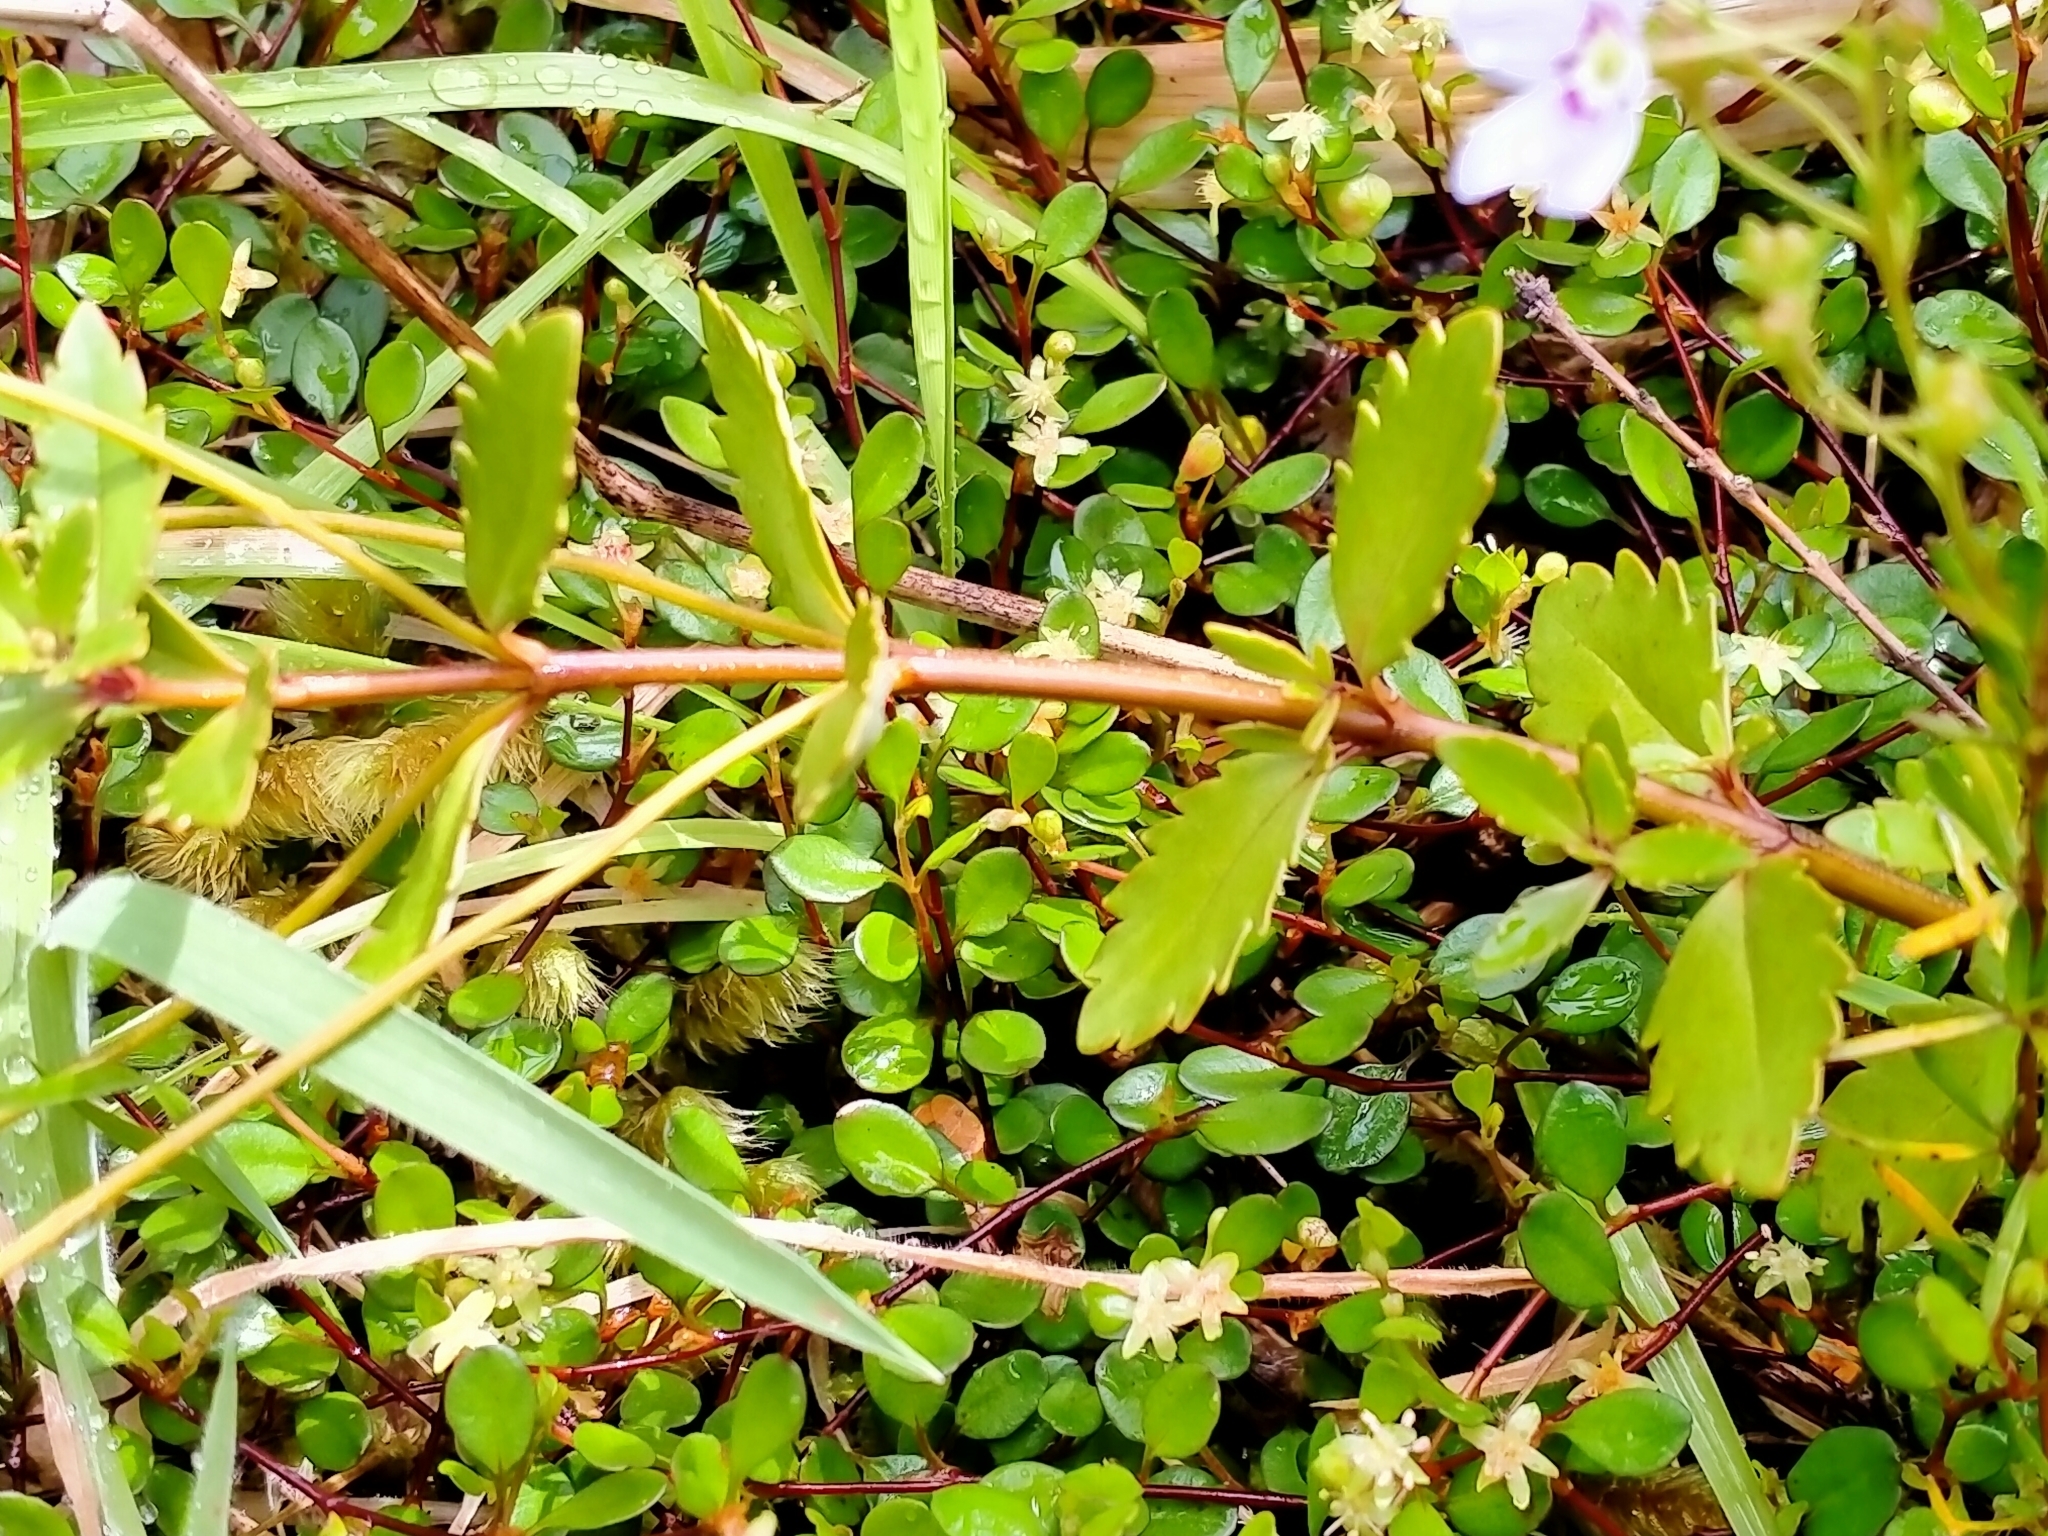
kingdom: Plantae
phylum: Tracheophyta
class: Magnoliopsida
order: Lamiales
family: Plantaginaceae
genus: Veronica
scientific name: Veronica lyallii
